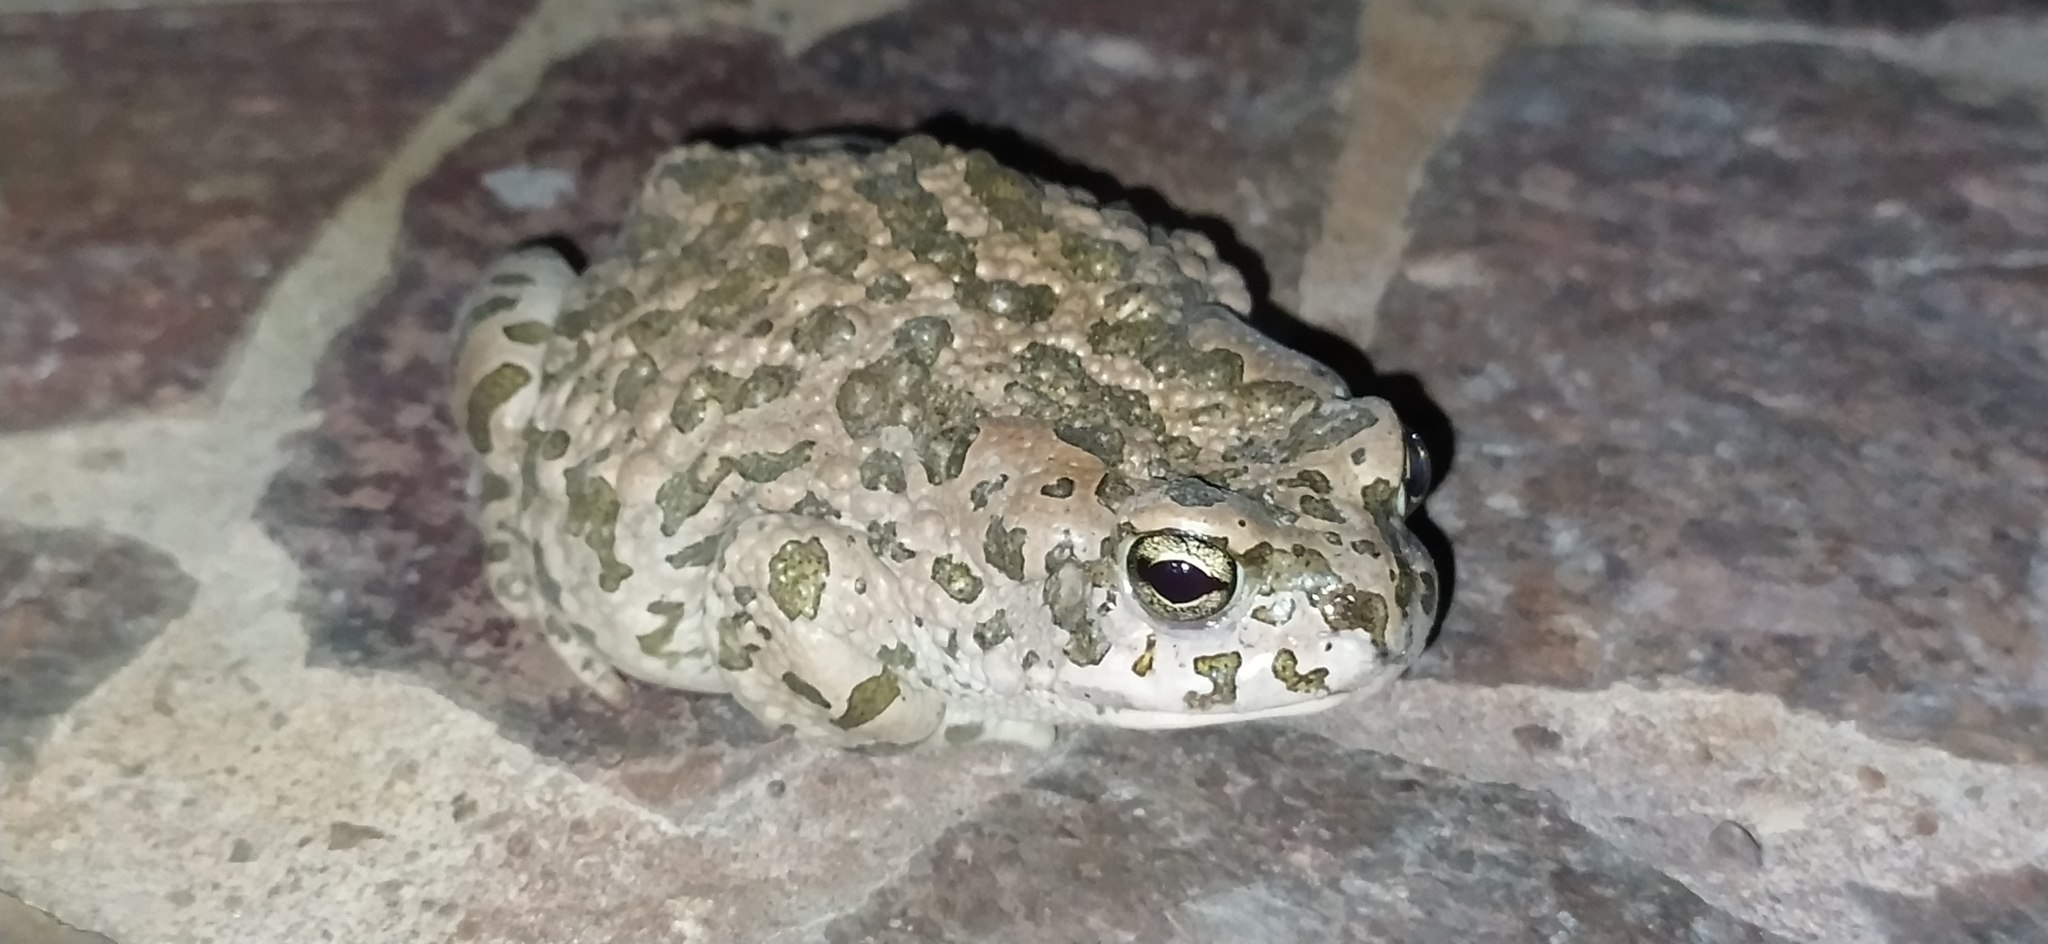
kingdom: Animalia
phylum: Chordata
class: Amphibia
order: Anura
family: Bufonidae
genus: Bufotes
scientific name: Bufotes pewzowi
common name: Xinjiang toad
